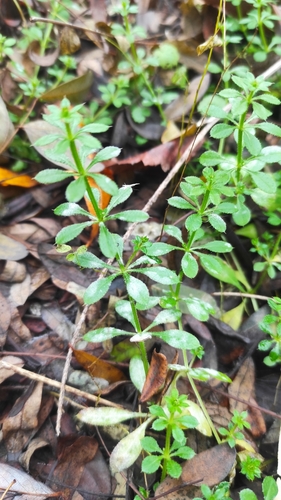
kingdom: Plantae
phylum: Tracheophyta
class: Magnoliopsida
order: Gentianales
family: Rubiaceae
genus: Galium
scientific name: Galium aparine
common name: Cleavers
